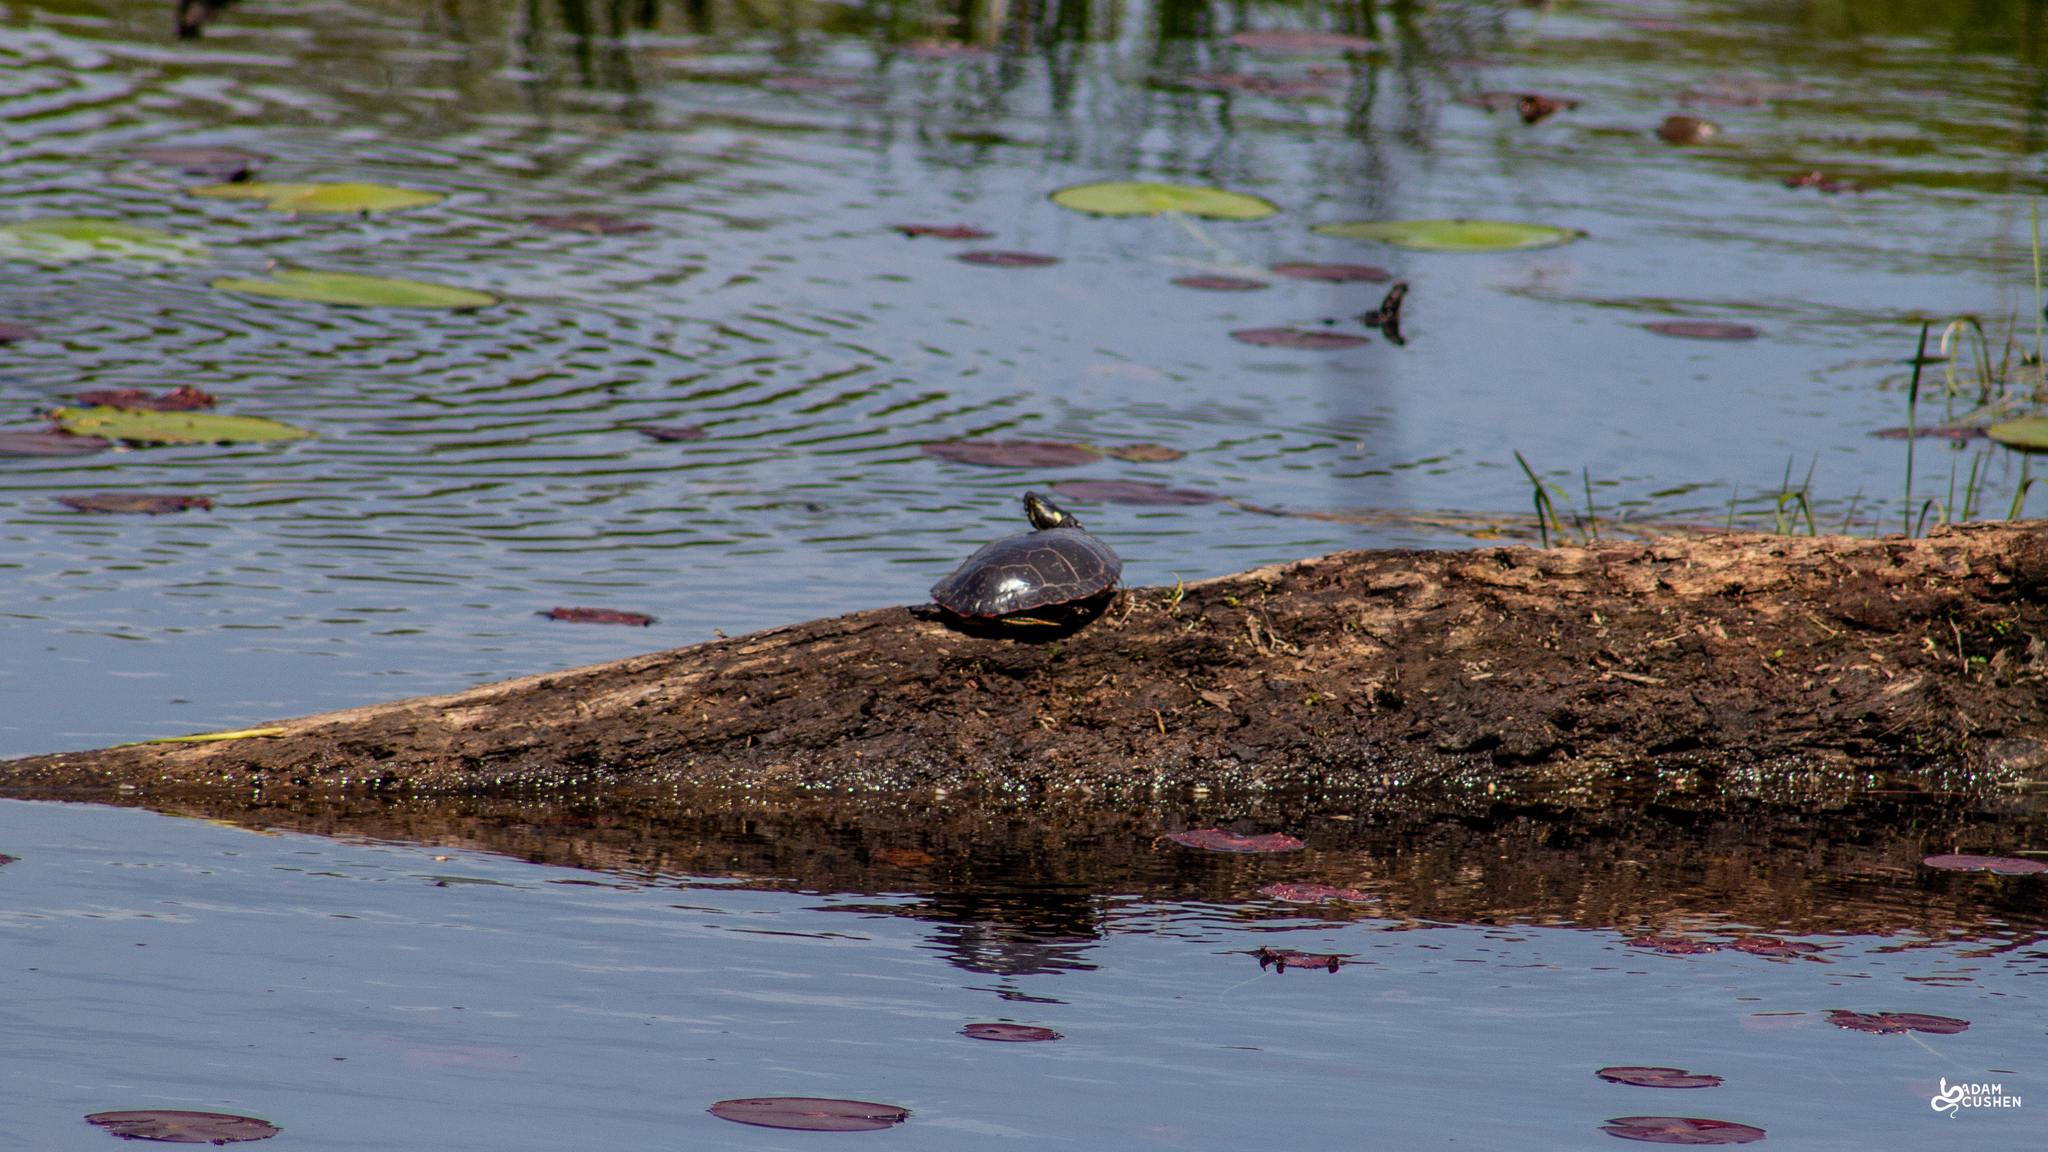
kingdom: Animalia
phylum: Chordata
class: Testudines
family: Emydidae
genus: Chrysemys
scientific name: Chrysemys picta
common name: Painted turtle
